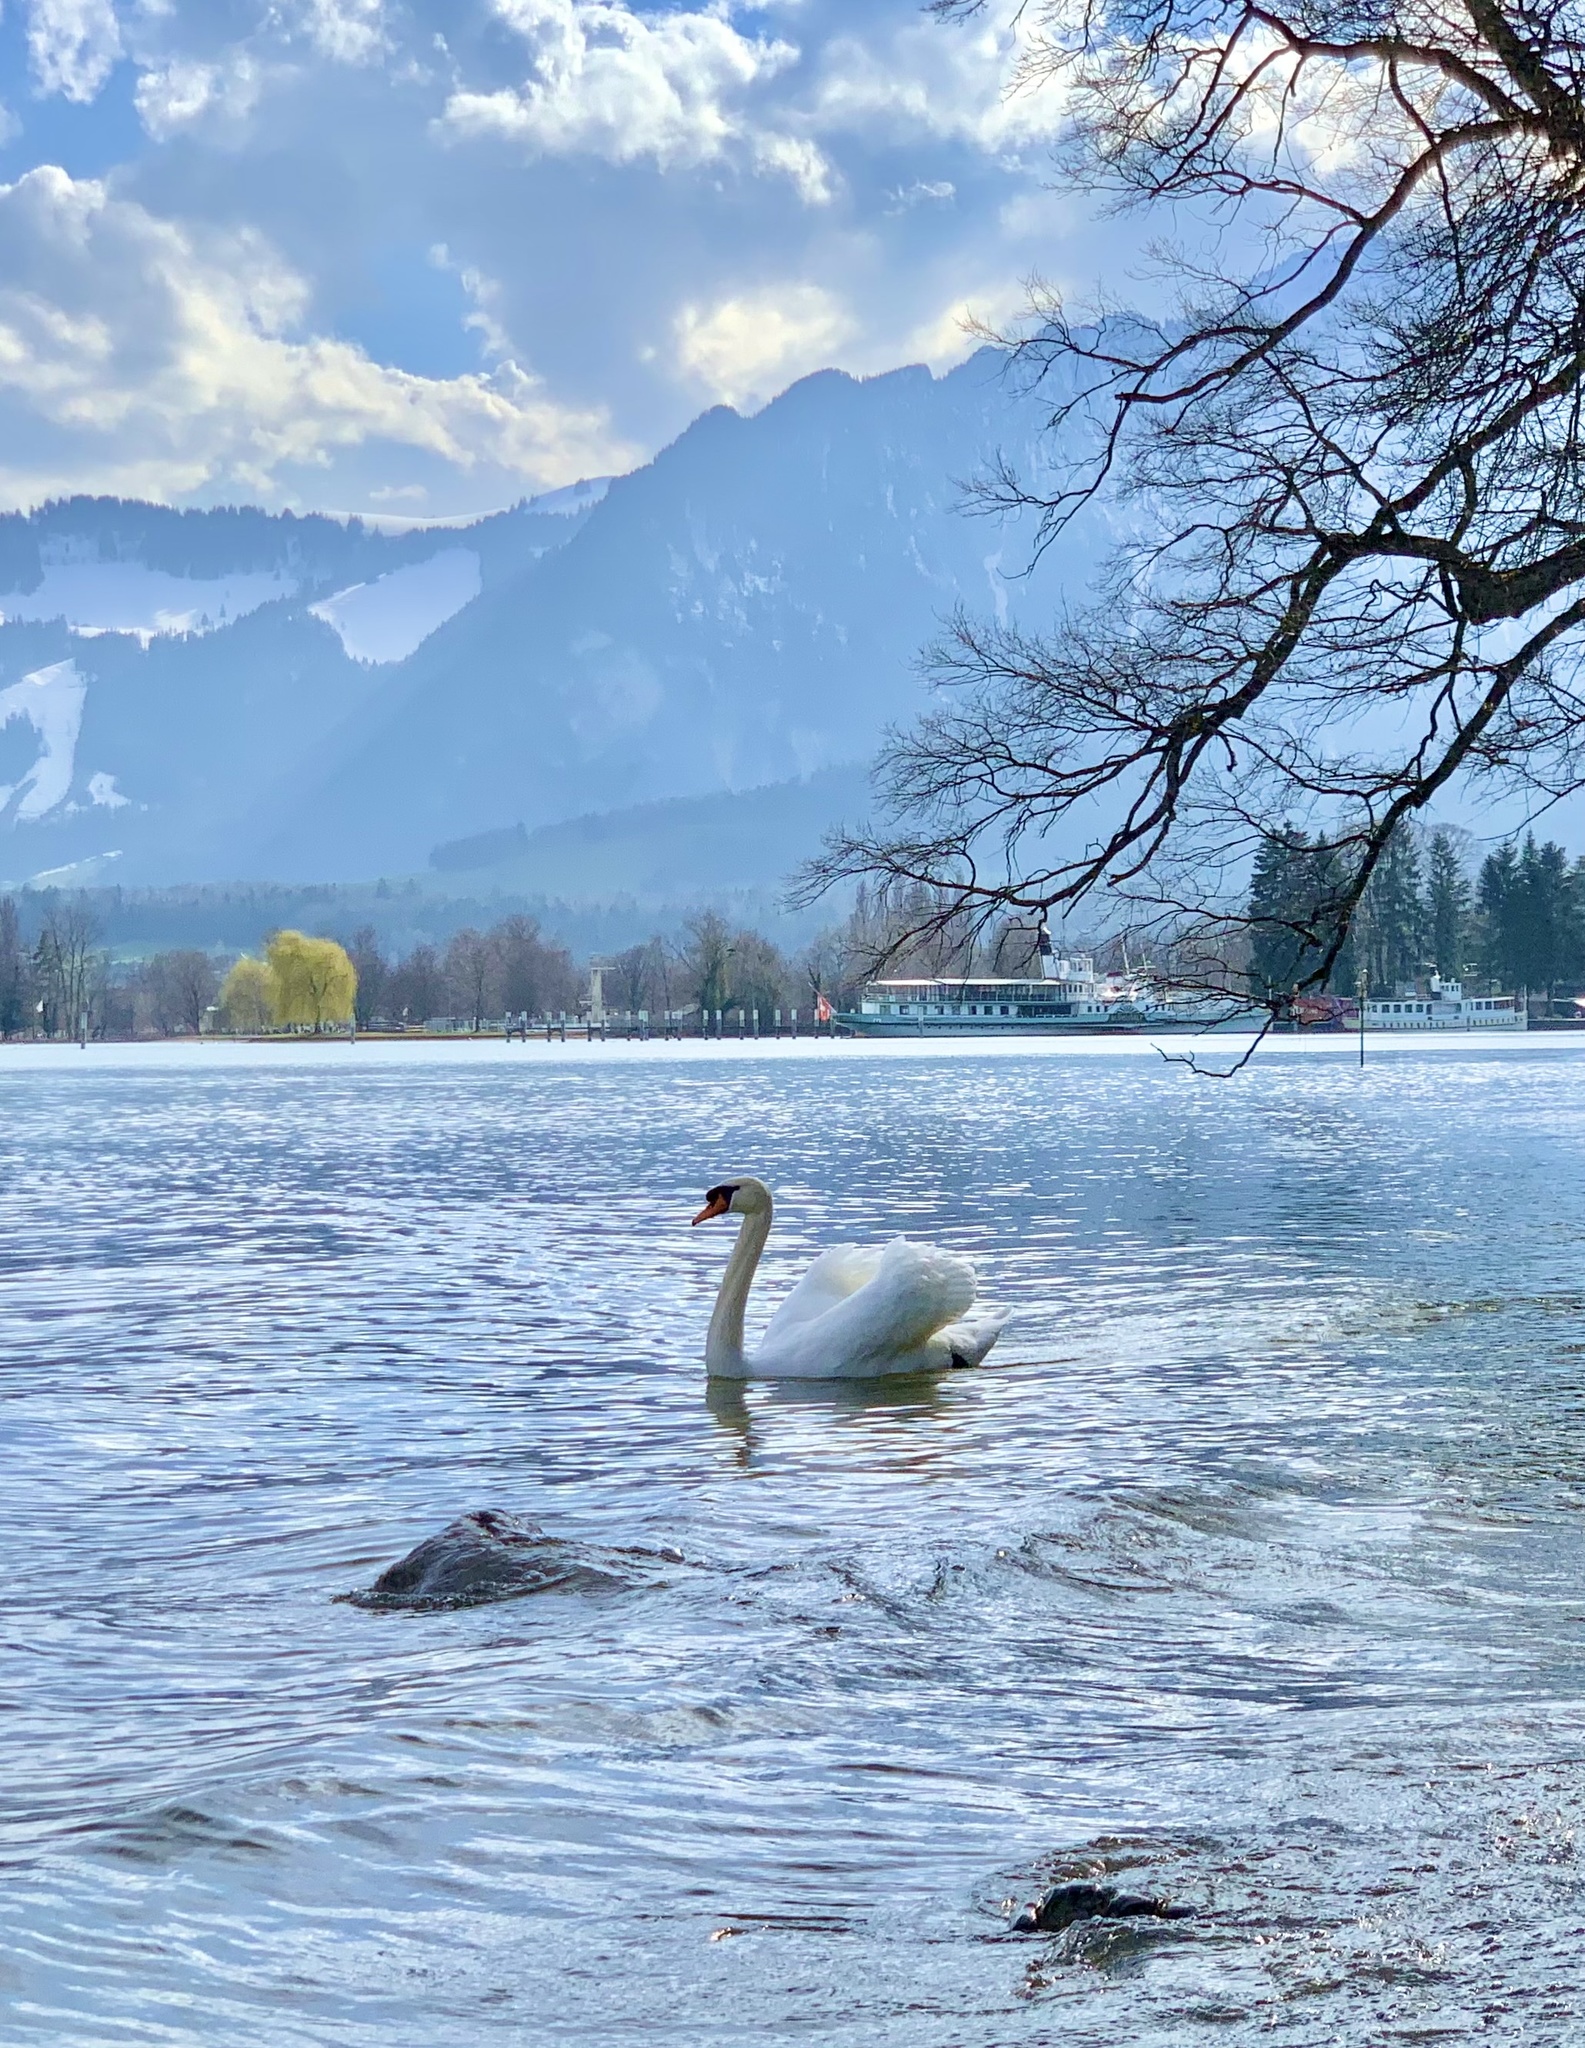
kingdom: Animalia
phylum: Chordata
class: Aves
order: Anseriformes
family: Anatidae
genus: Cygnus
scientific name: Cygnus olor
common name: Mute swan
